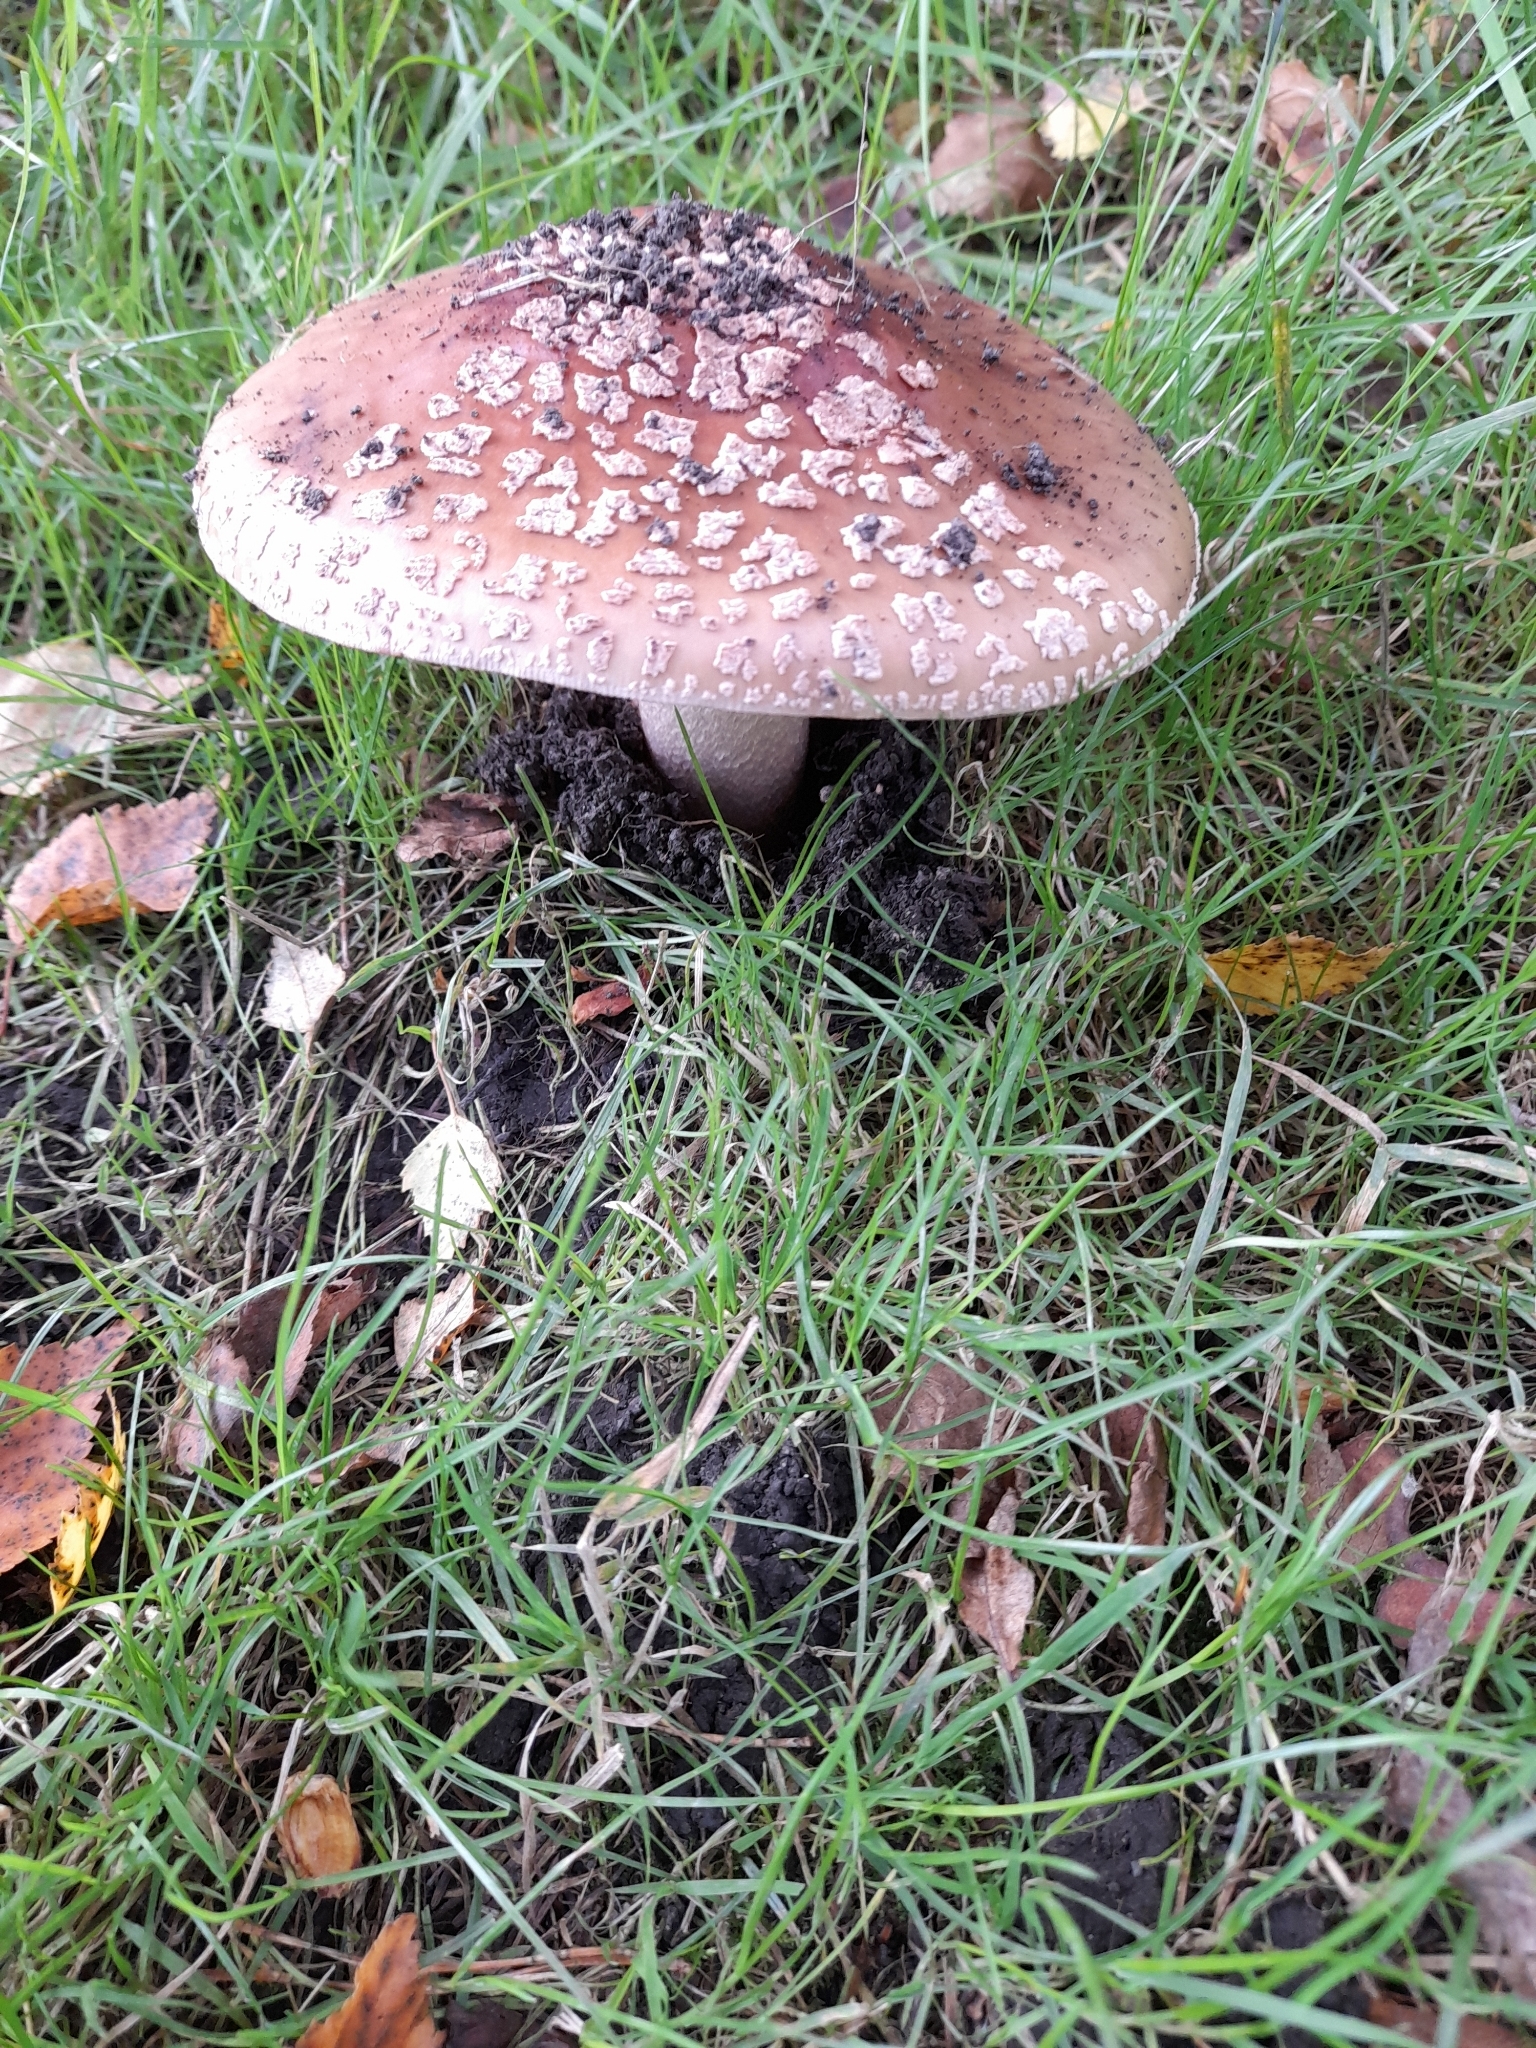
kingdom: Fungi
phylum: Basidiomycota
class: Agaricomycetes
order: Agaricales
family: Amanitaceae
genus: Amanita
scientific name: Amanita rubescens
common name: Blusher
